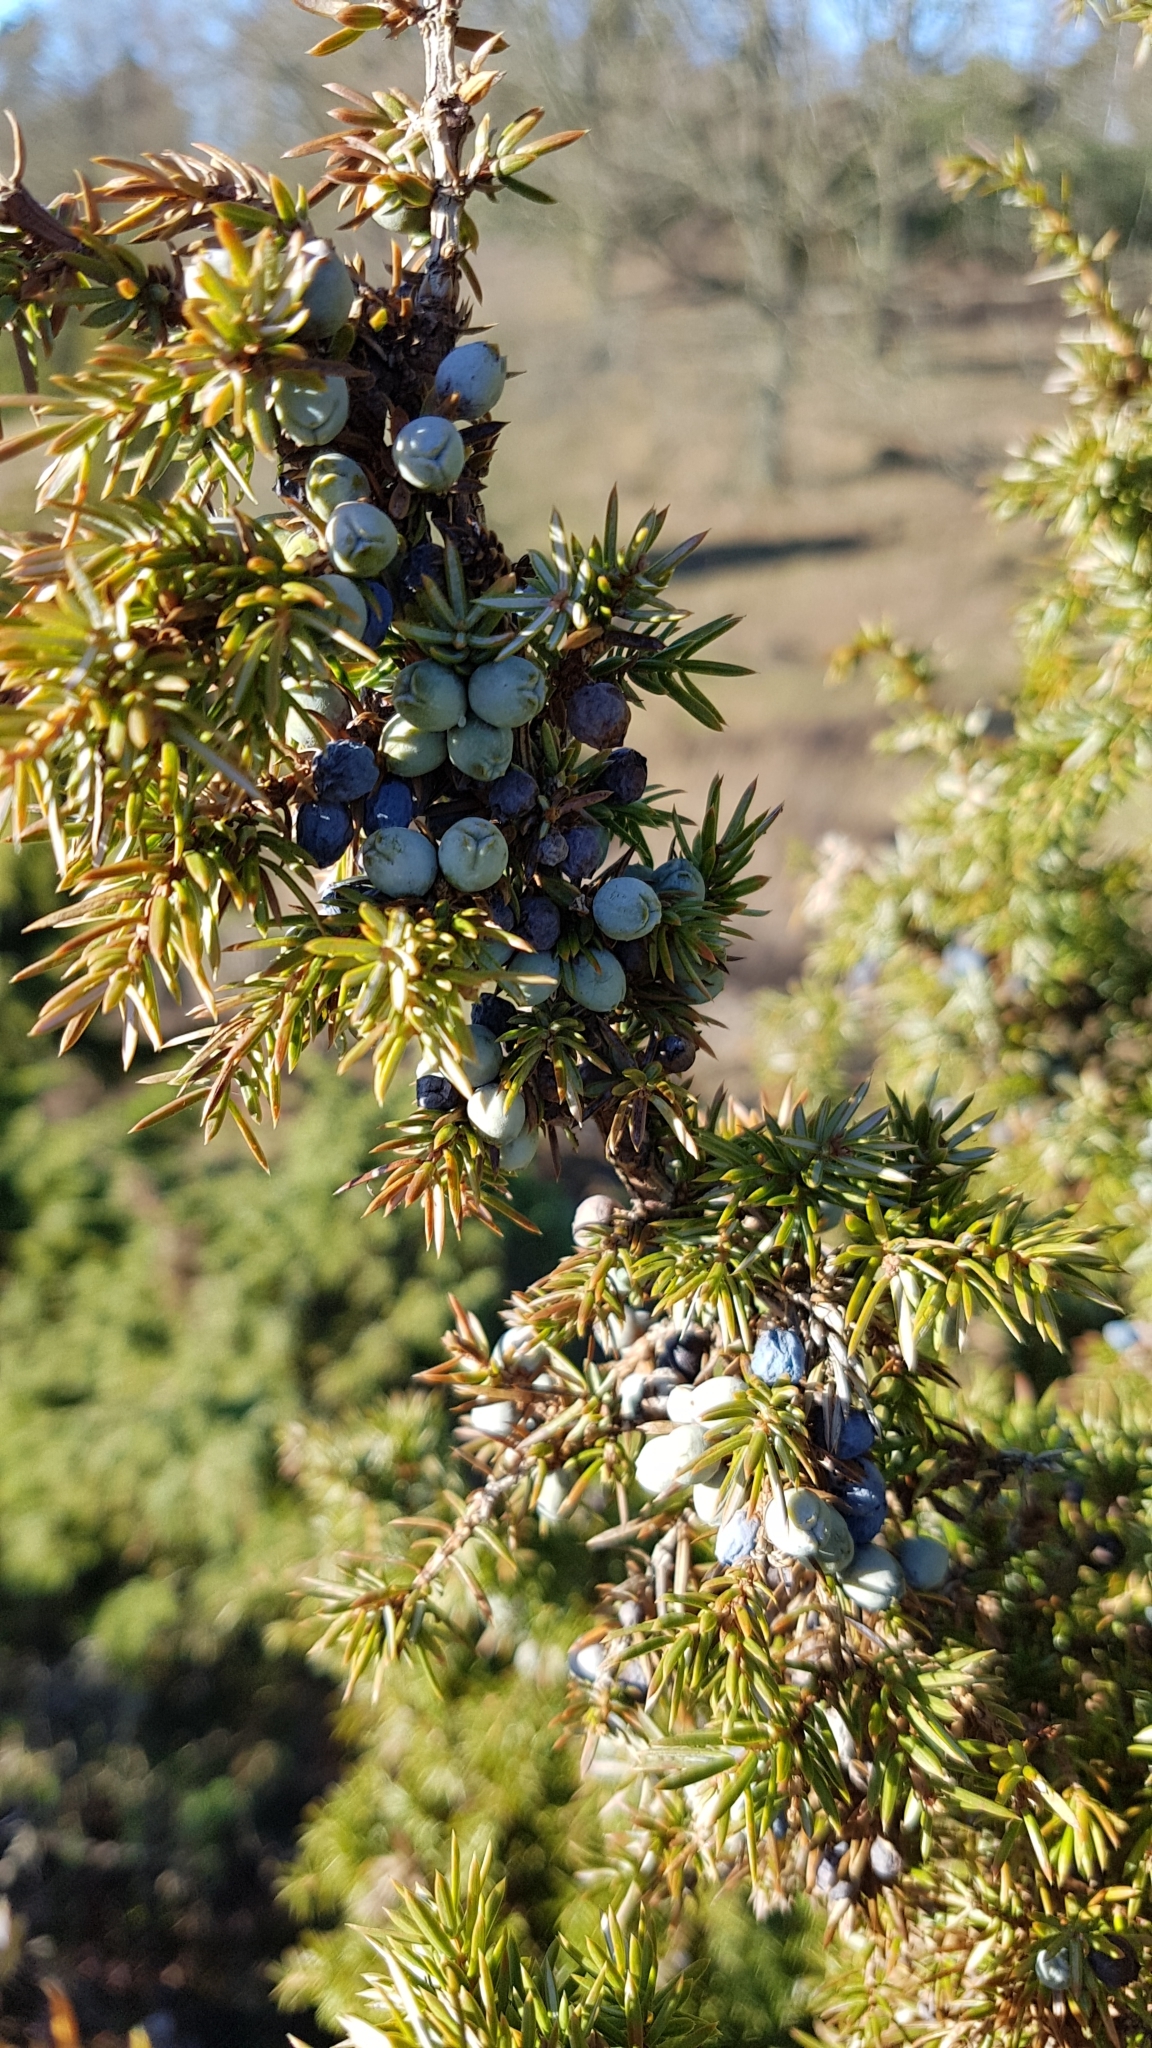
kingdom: Plantae
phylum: Tracheophyta
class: Pinopsida
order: Pinales
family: Cupressaceae
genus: Juniperus
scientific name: Juniperus communis
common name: Common juniper
